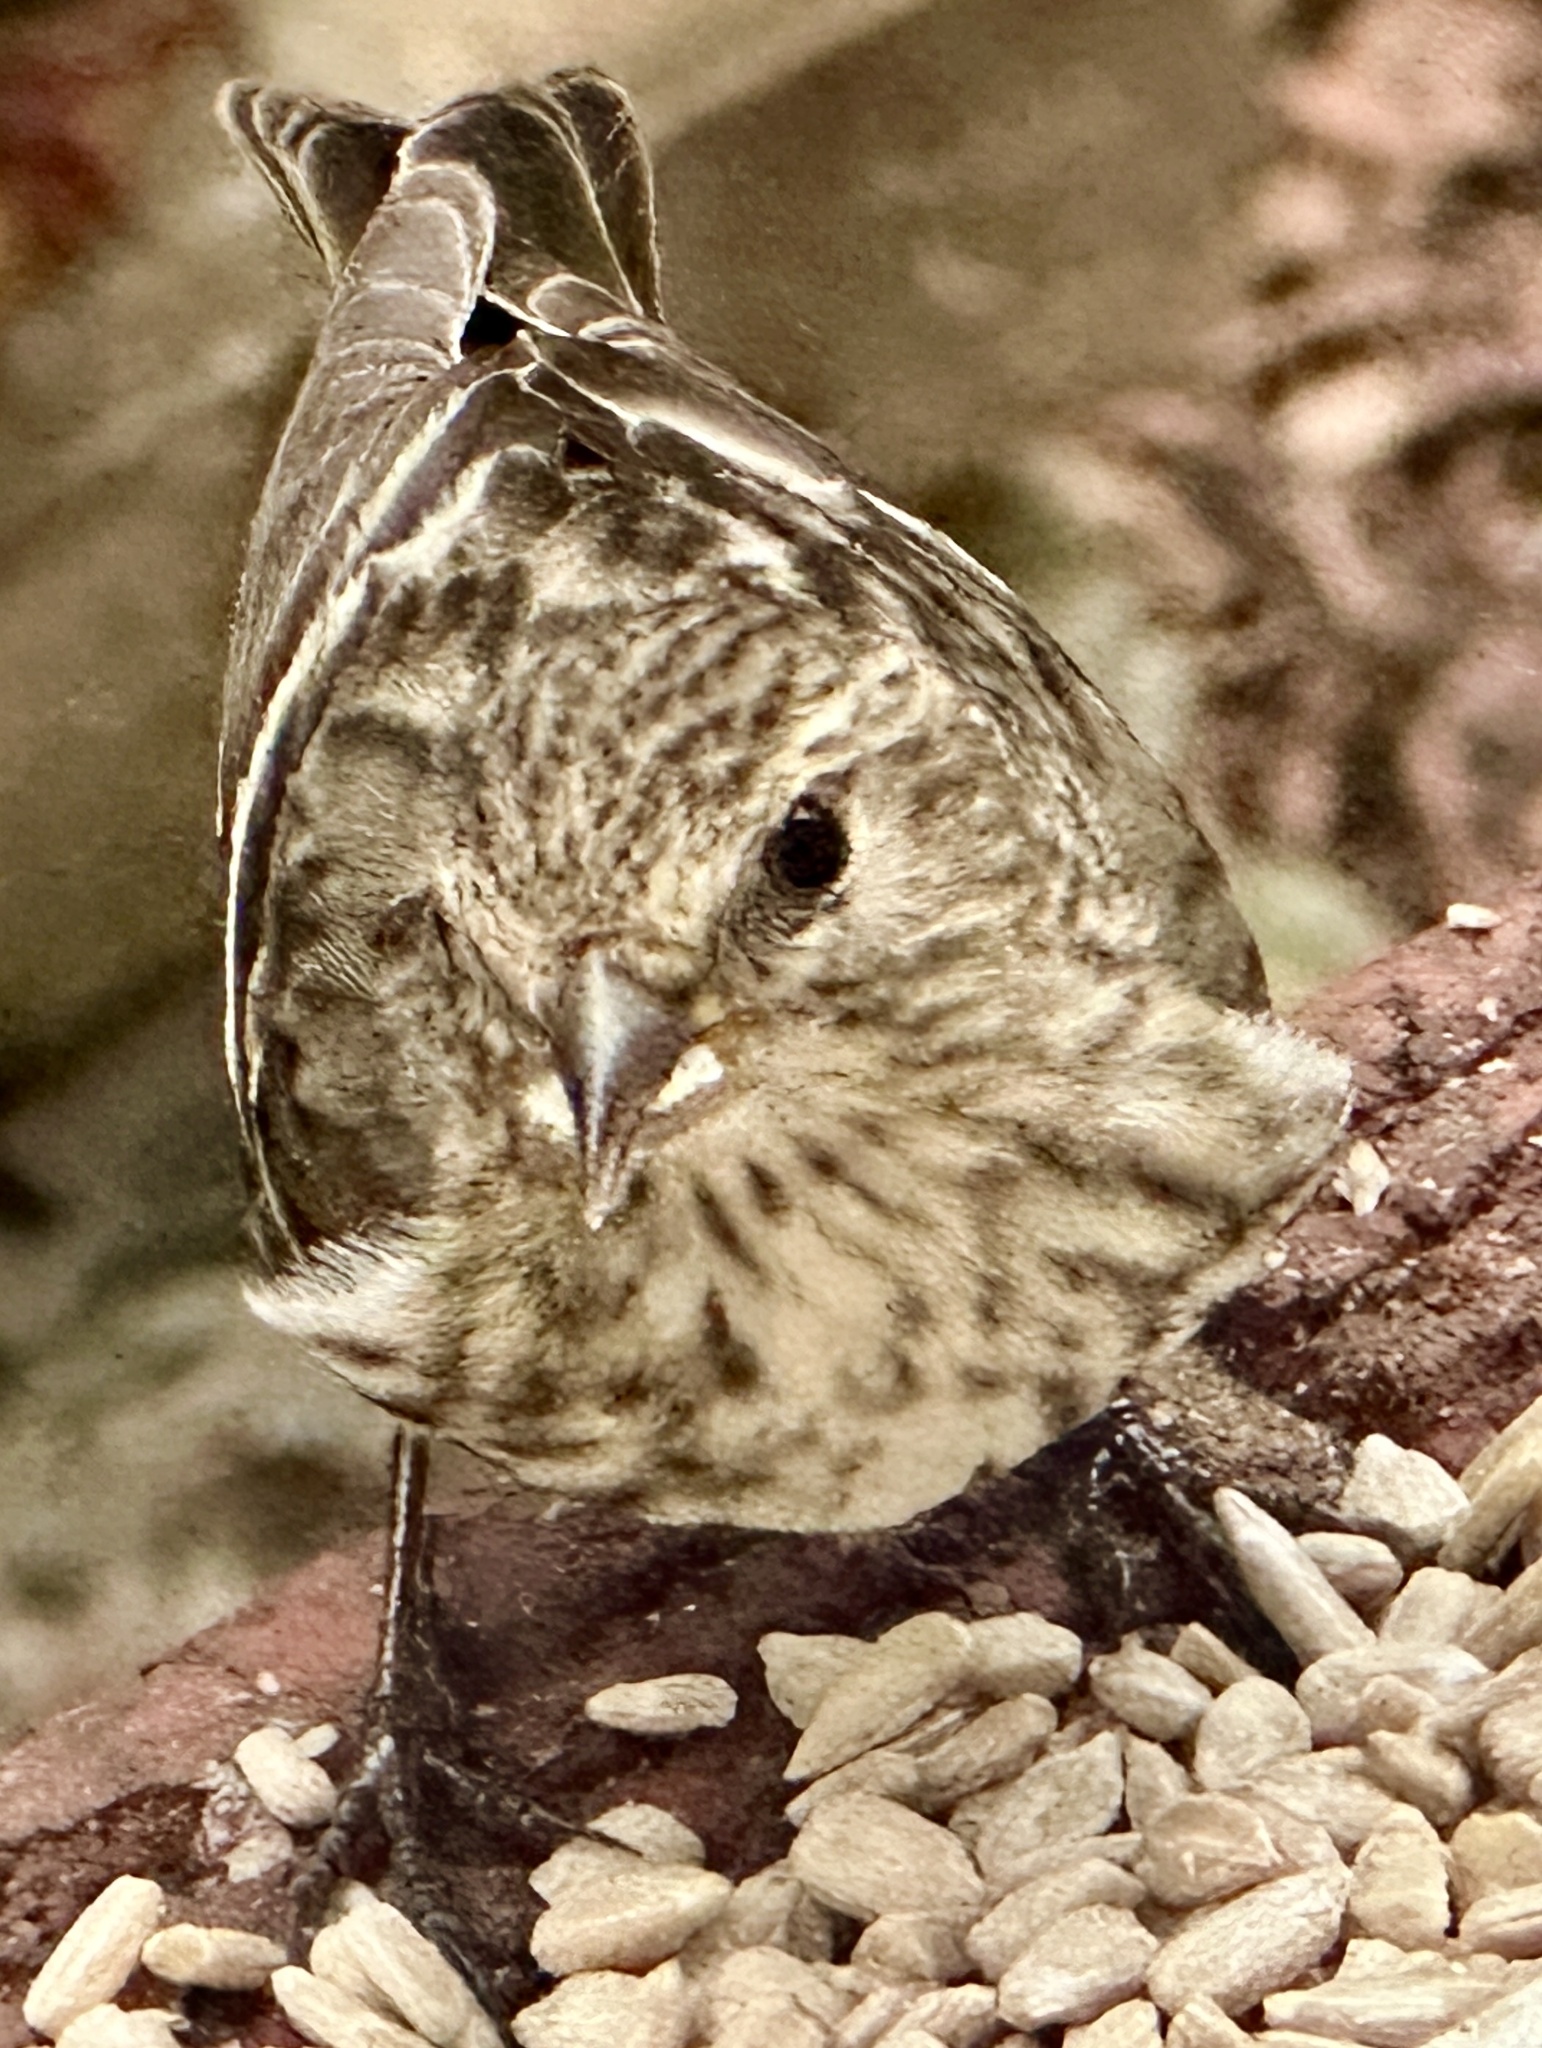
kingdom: Animalia
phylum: Chordata
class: Aves
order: Passeriformes
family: Fringillidae
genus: Spinus
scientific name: Spinus pinus
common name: Pine siskin
